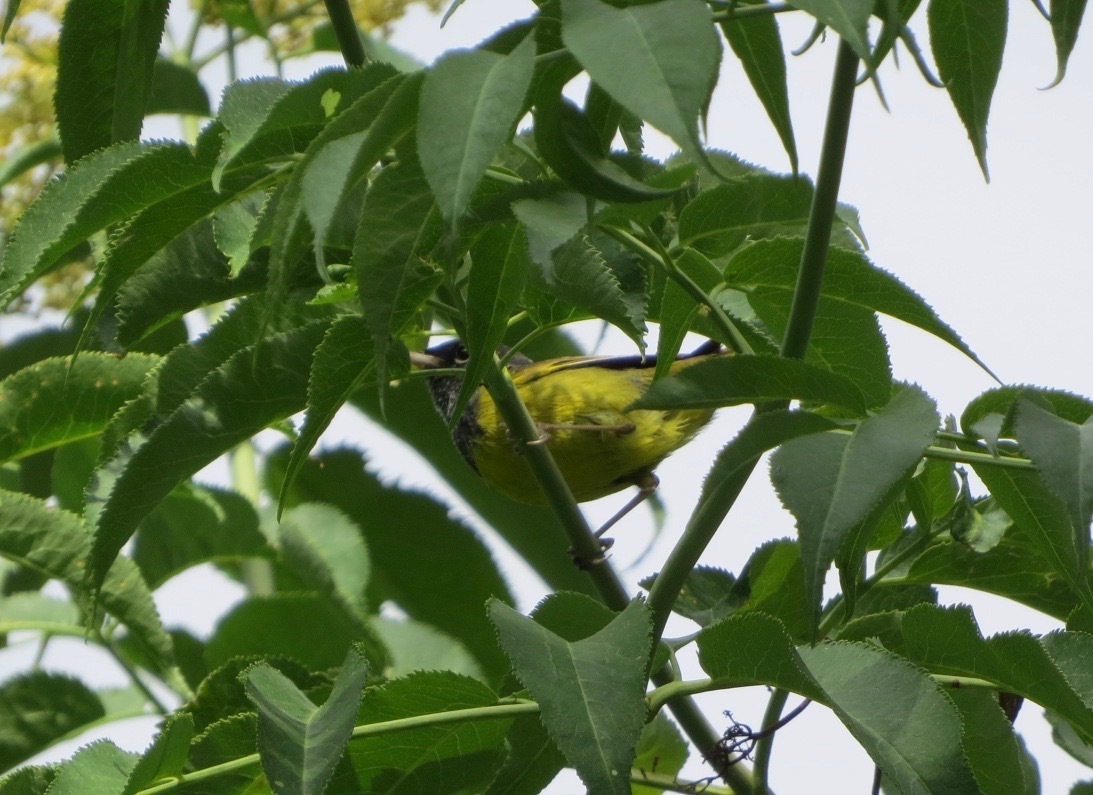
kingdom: Animalia
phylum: Chordata
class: Aves
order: Passeriformes
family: Parulidae
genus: Geothlypis
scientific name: Geothlypis tolmiei
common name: Macgillivray's warbler
